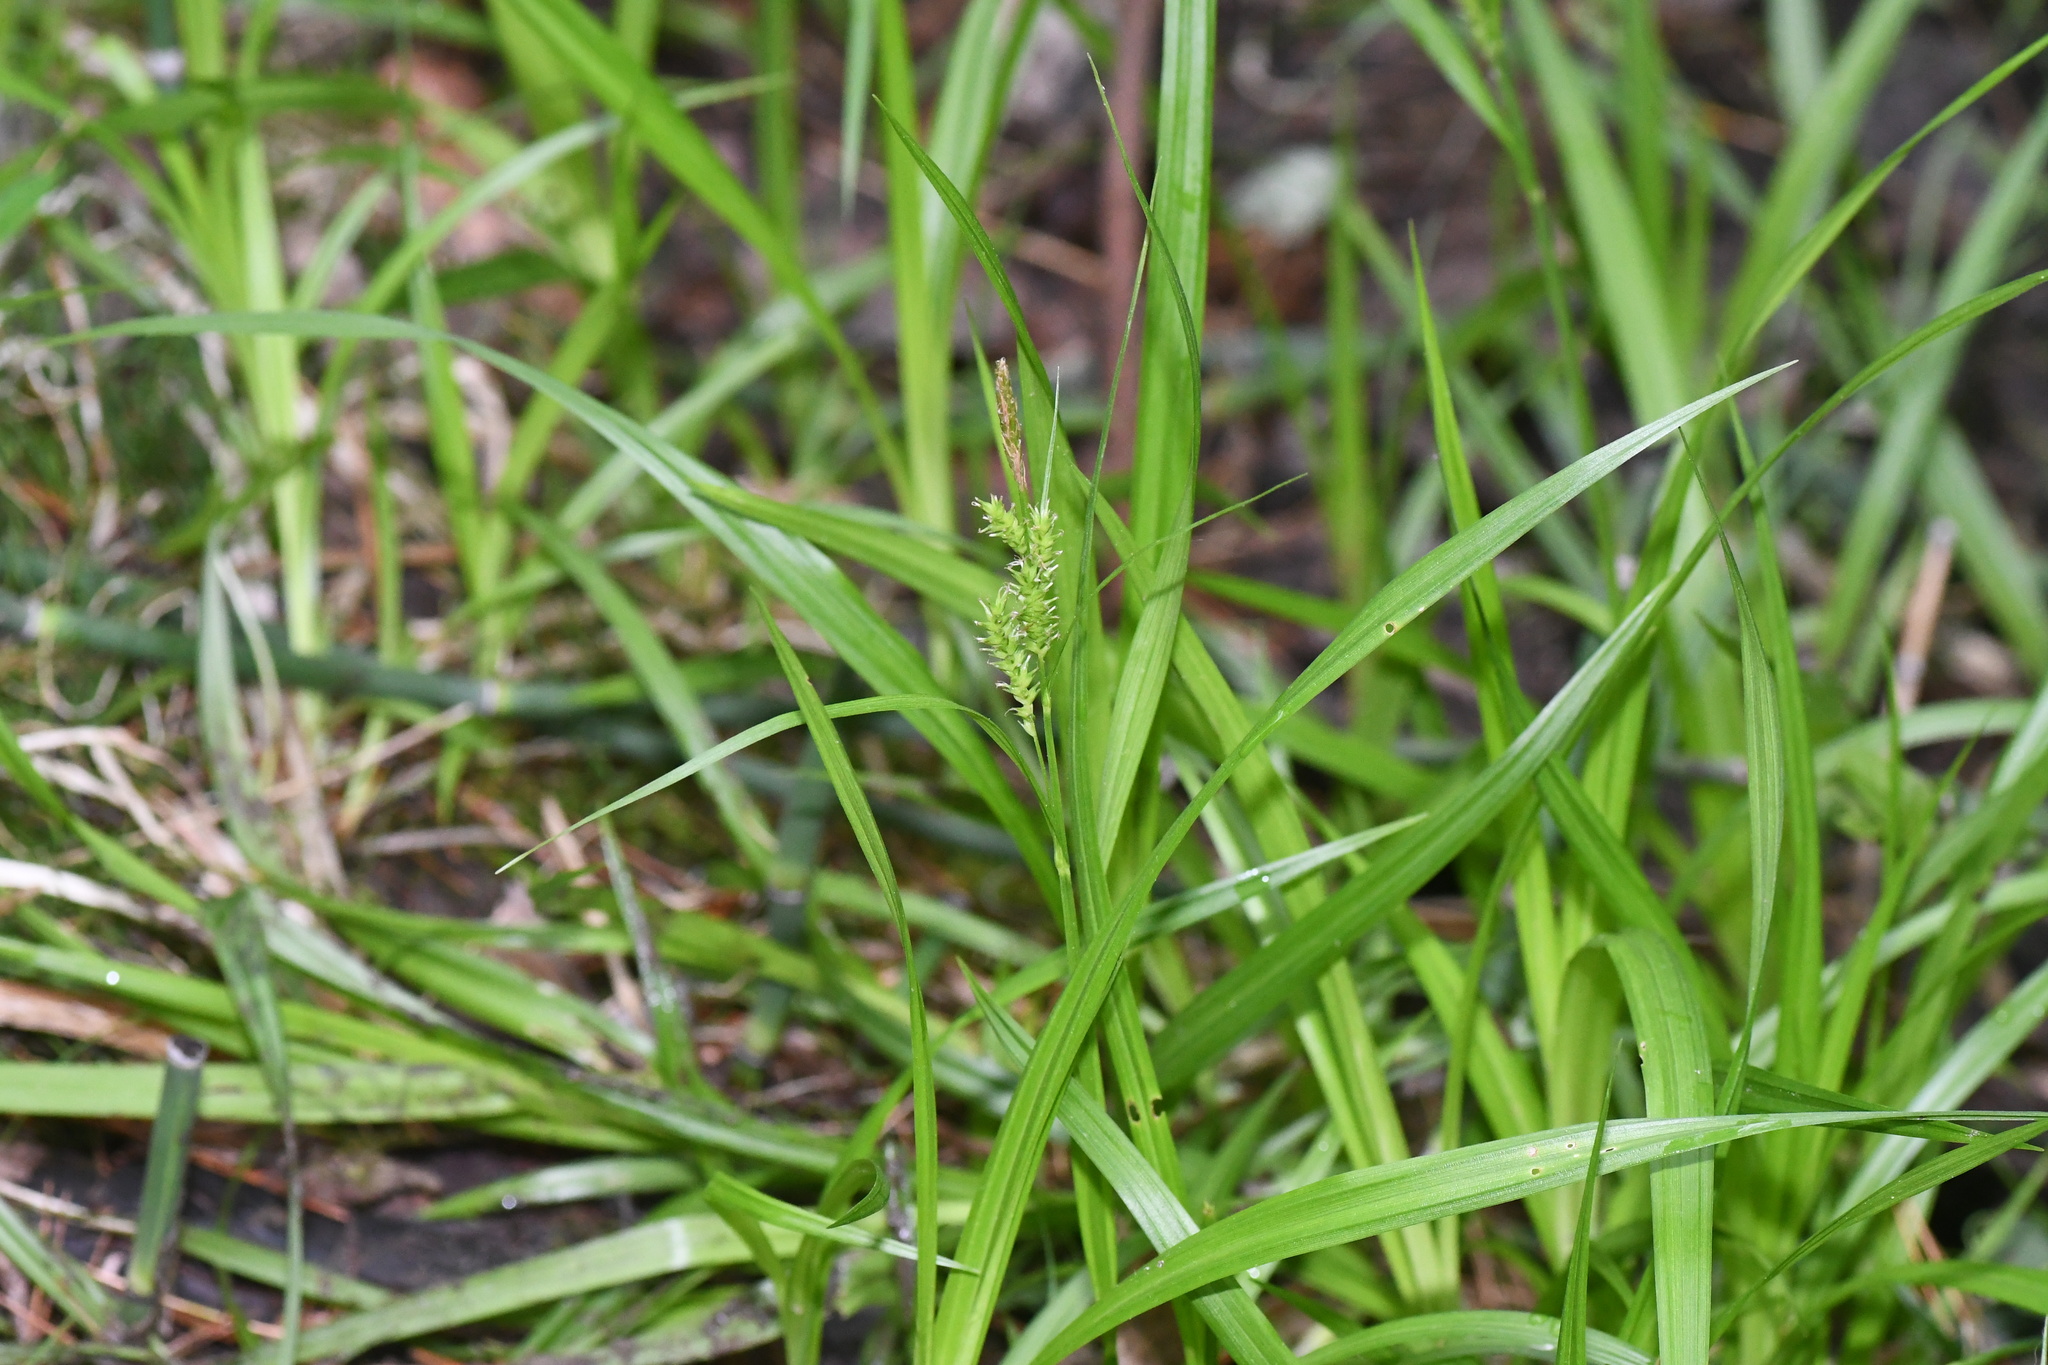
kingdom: Plantae
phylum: Tracheophyta
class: Liliopsida
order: Poales
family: Cyperaceae
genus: Carex
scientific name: Carex scabrata
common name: Eastern rough sedge
